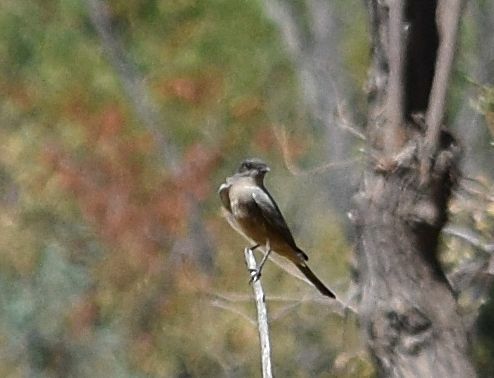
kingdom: Animalia
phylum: Chordata
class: Aves
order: Passeriformes
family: Tyrannidae
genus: Sayornis
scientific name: Sayornis saya
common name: Say's phoebe
